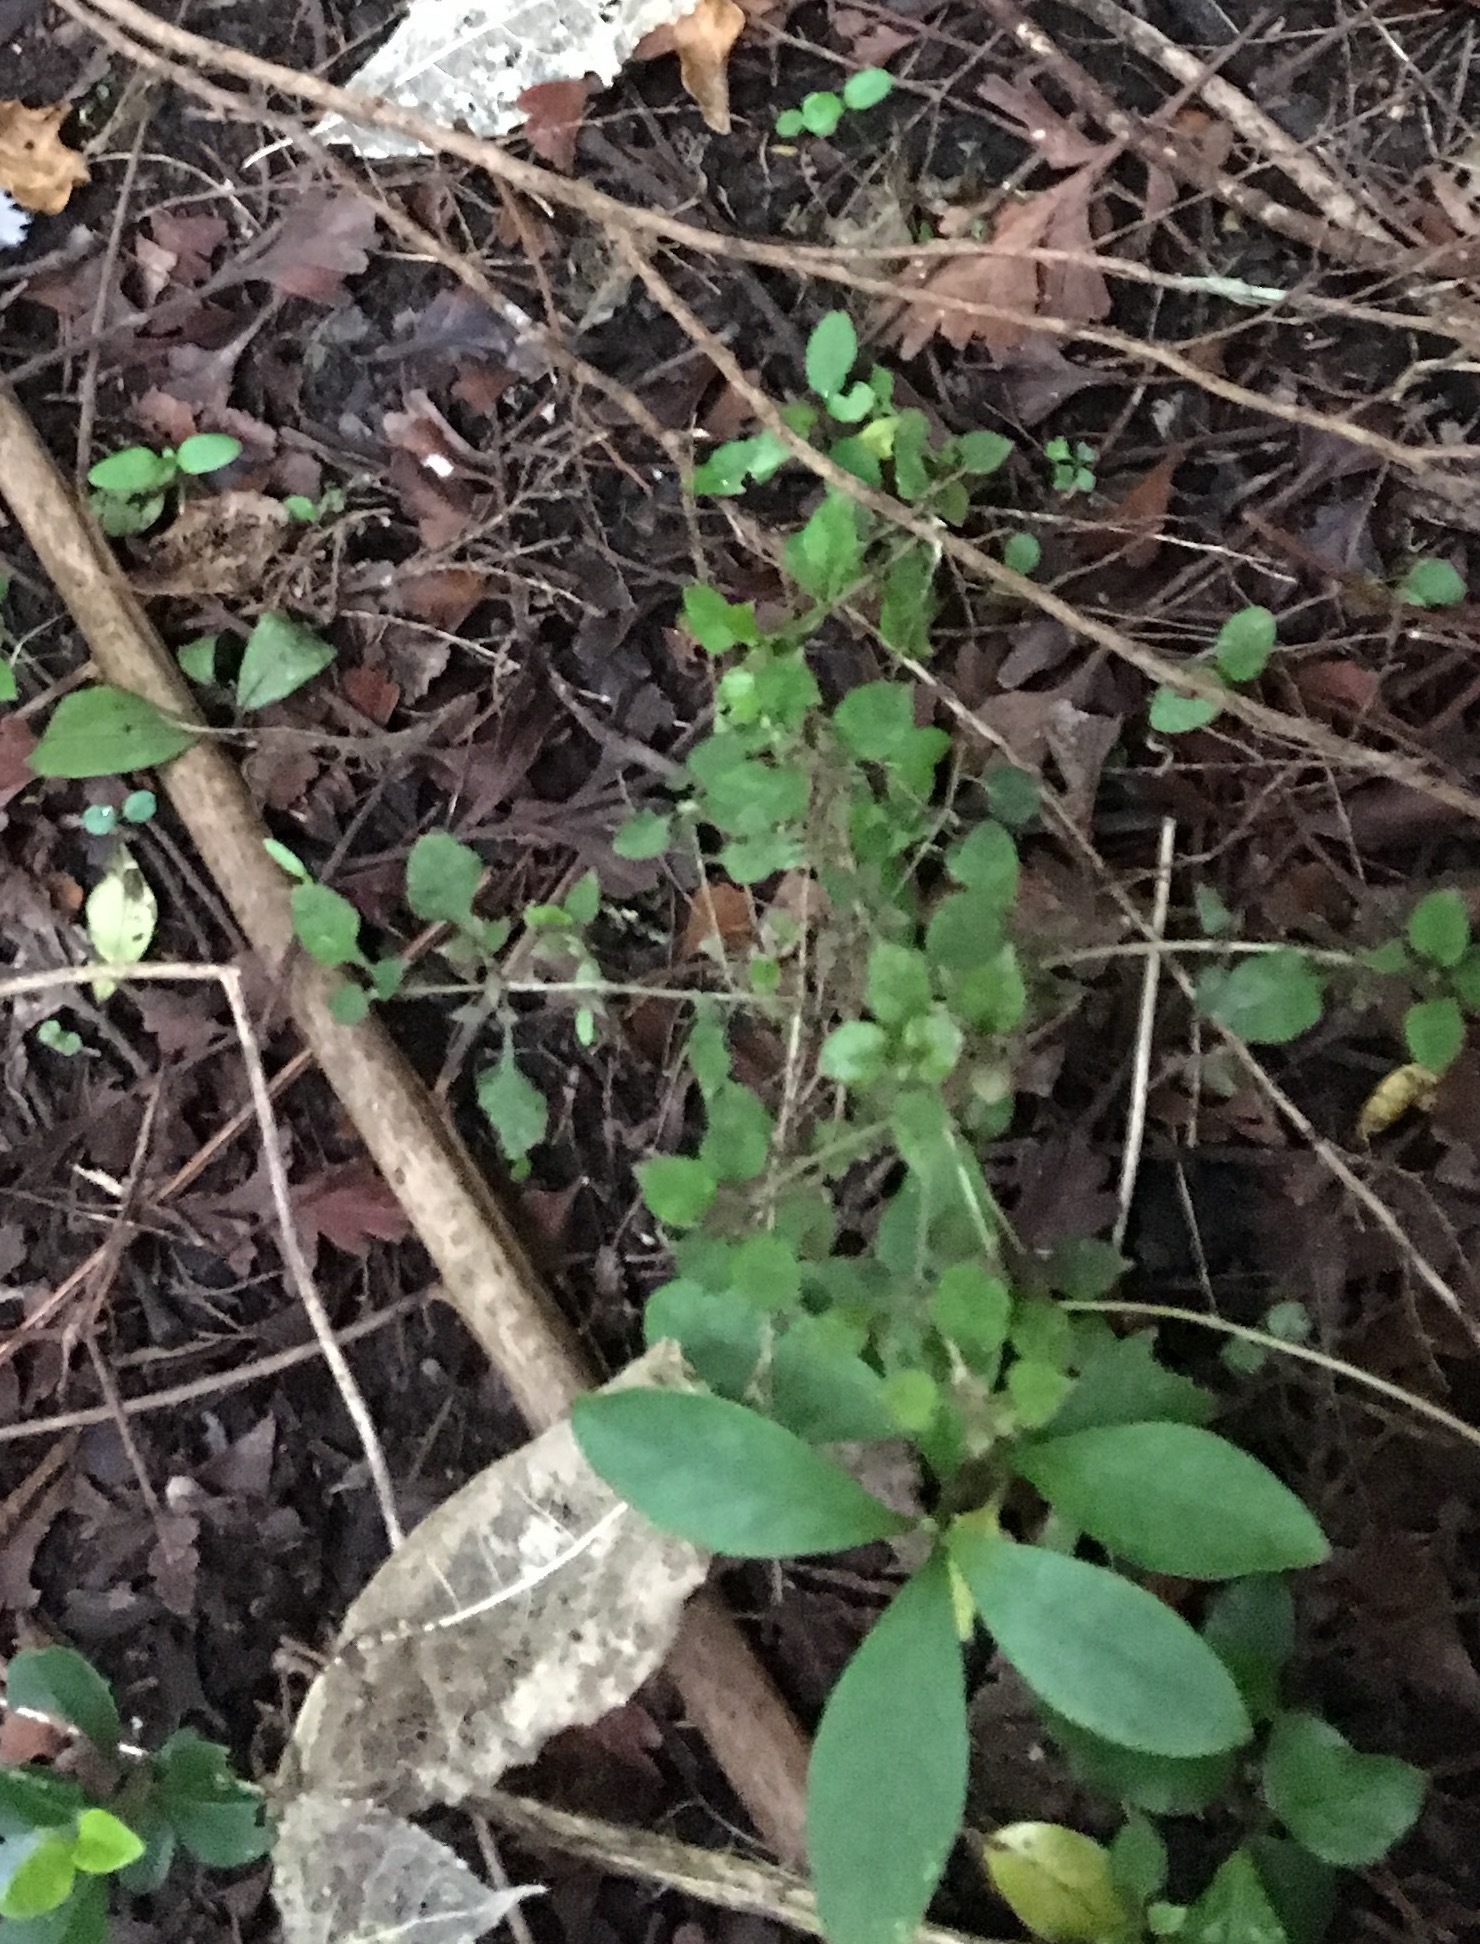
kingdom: Plantae
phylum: Tracheophyta
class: Magnoliopsida
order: Gentianales
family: Rubiaceae
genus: Coprosma
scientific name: Coprosma areolata
